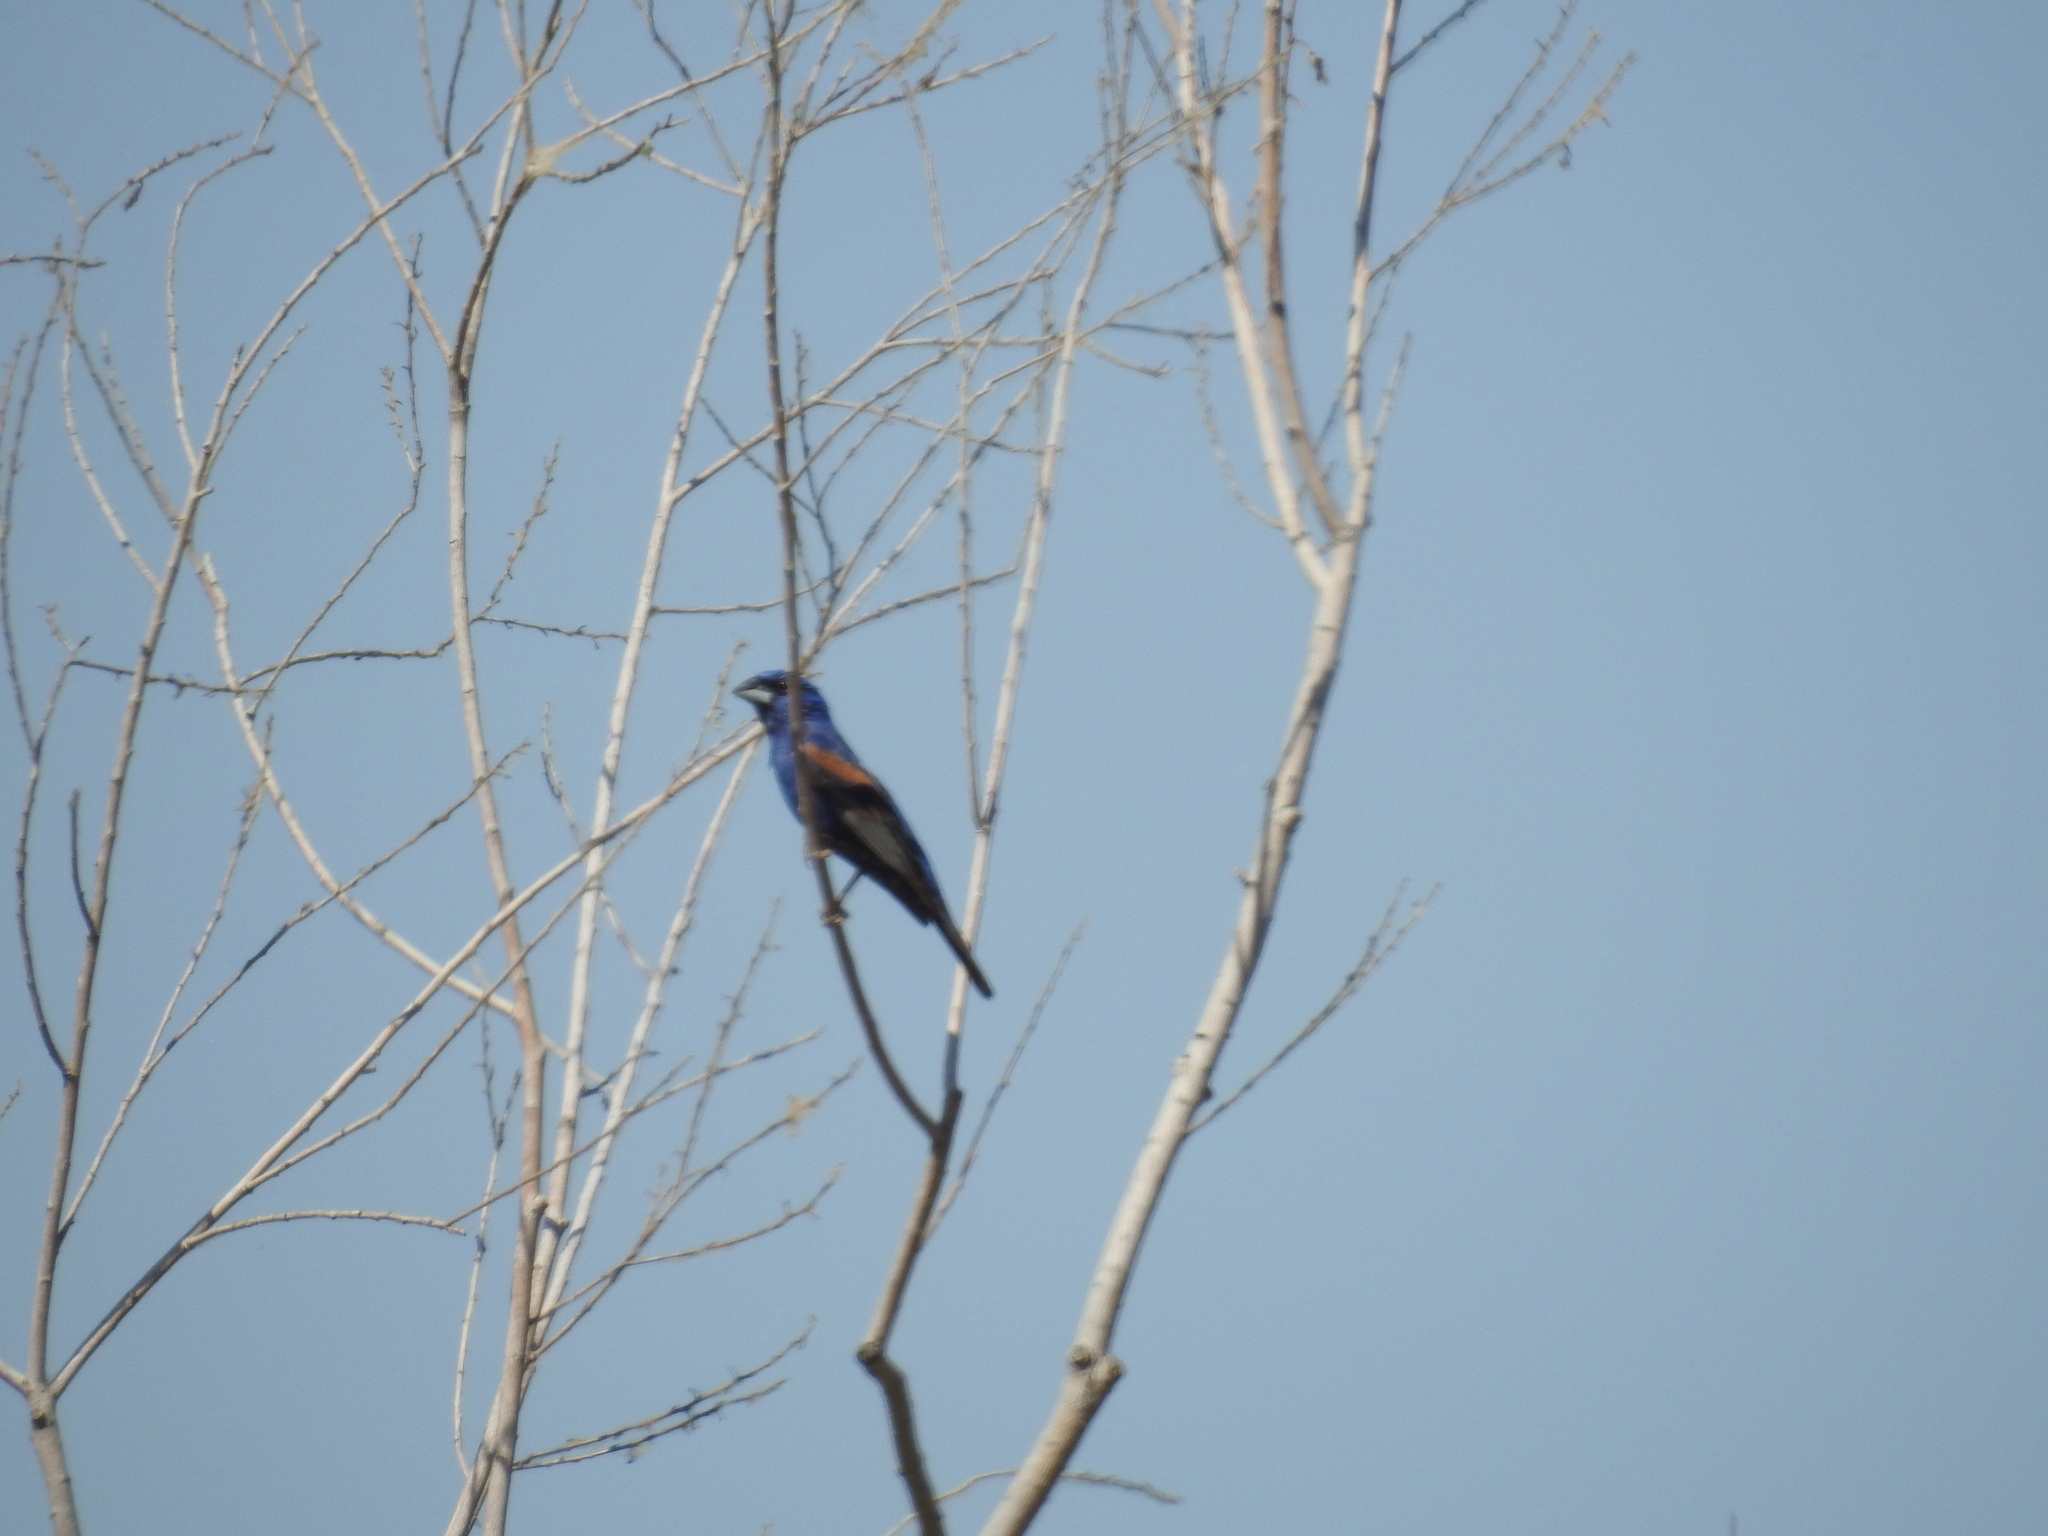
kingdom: Animalia
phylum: Chordata
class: Aves
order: Passeriformes
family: Cardinalidae
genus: Passerina
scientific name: Passerina caerulea
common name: Blue grosbeak
